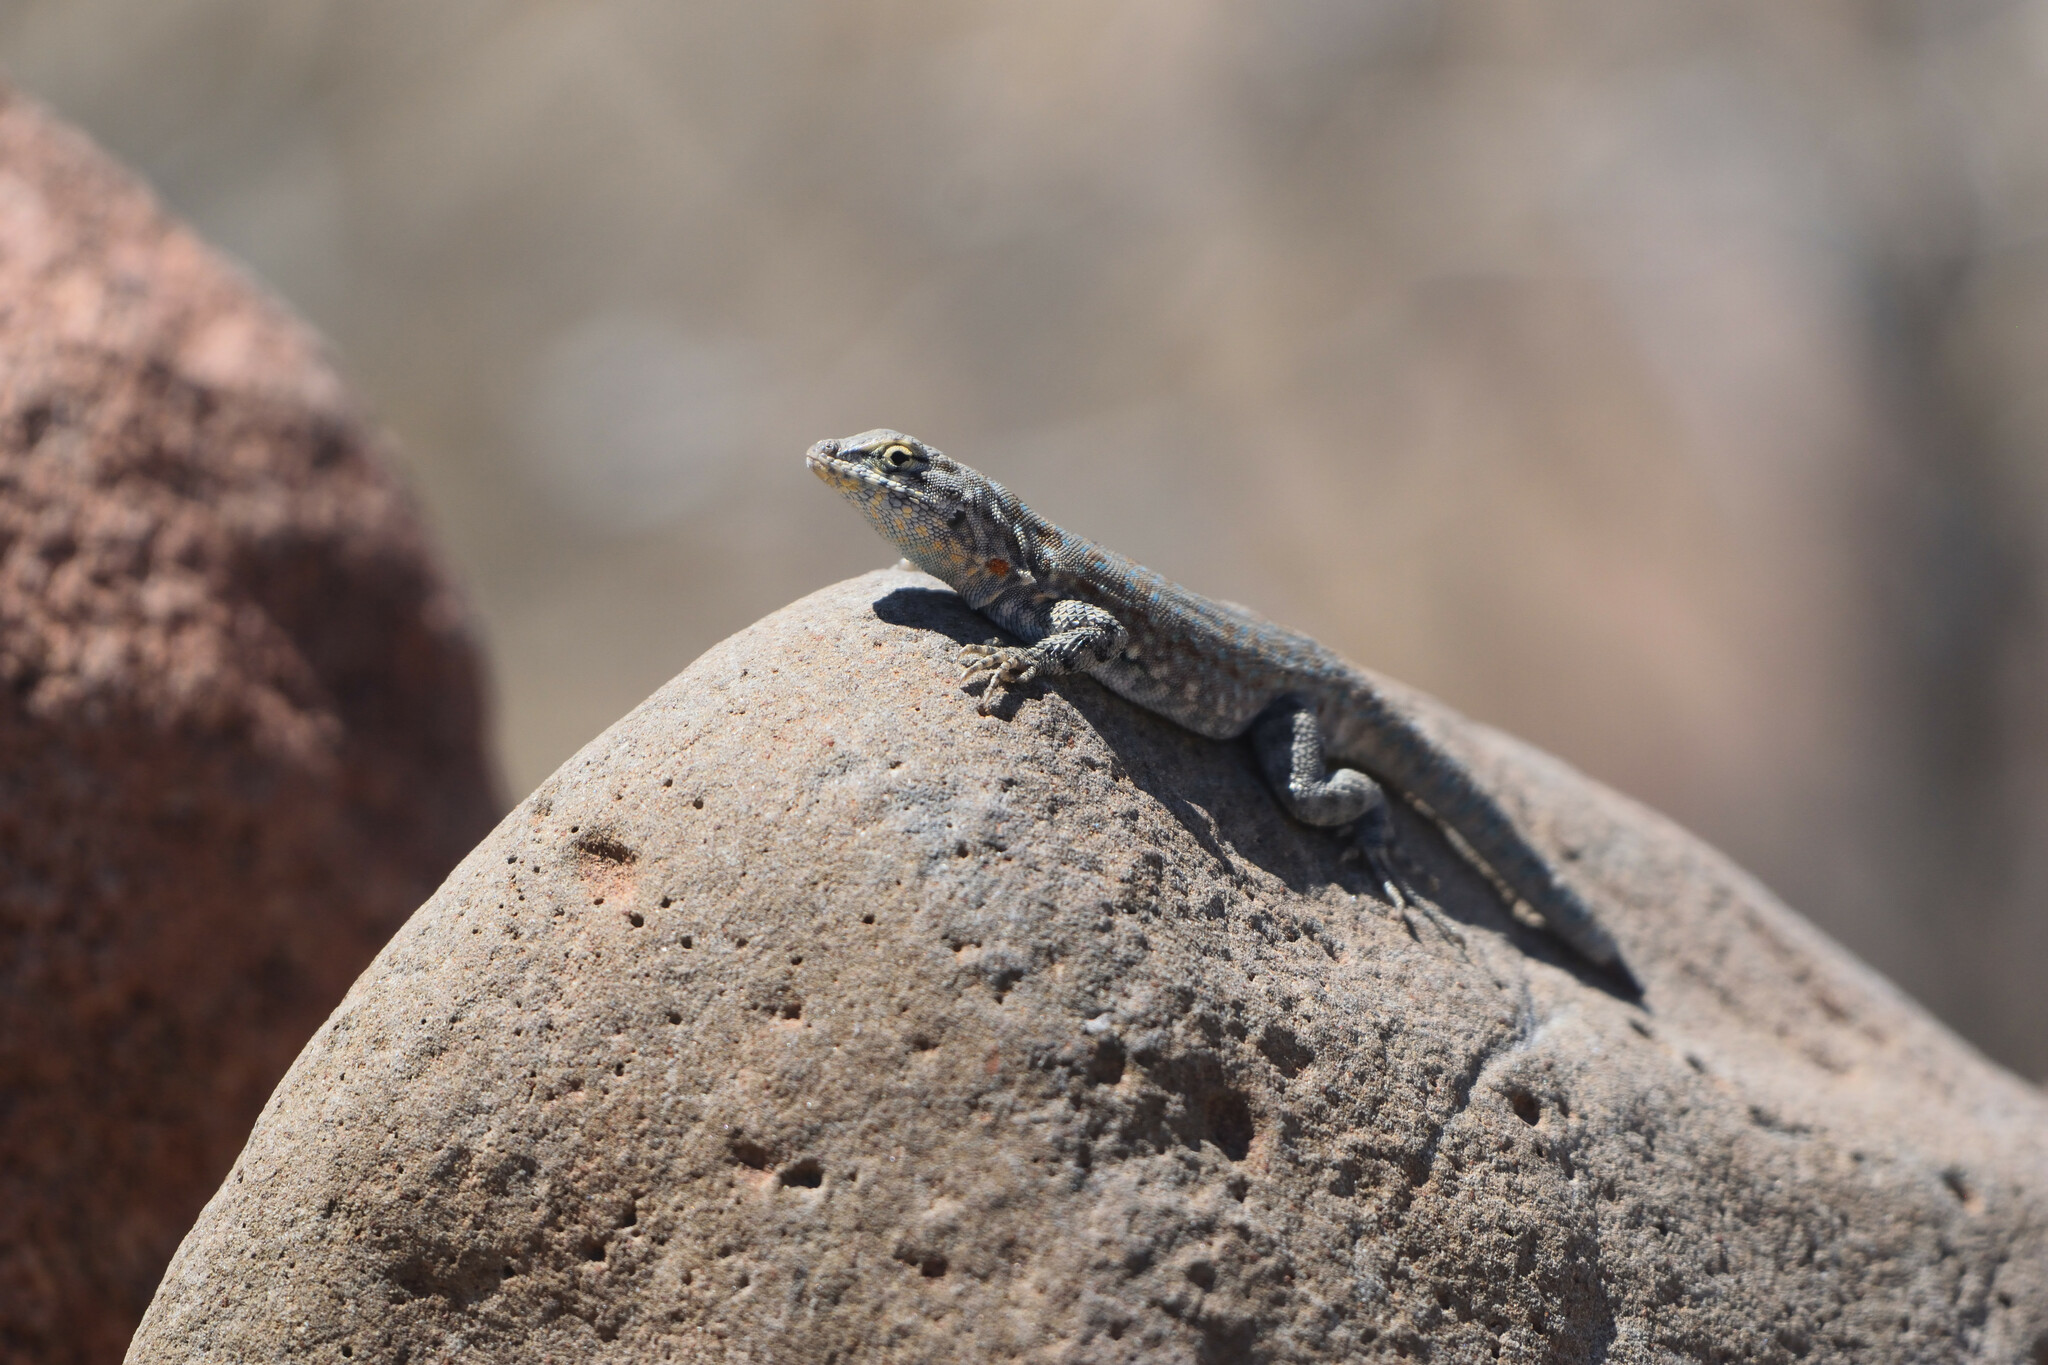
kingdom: Animalia
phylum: Chordata
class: Squamata
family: Phrynosomatidae
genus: Uta
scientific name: Uta stansburiana
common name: Side-blotched lizard
